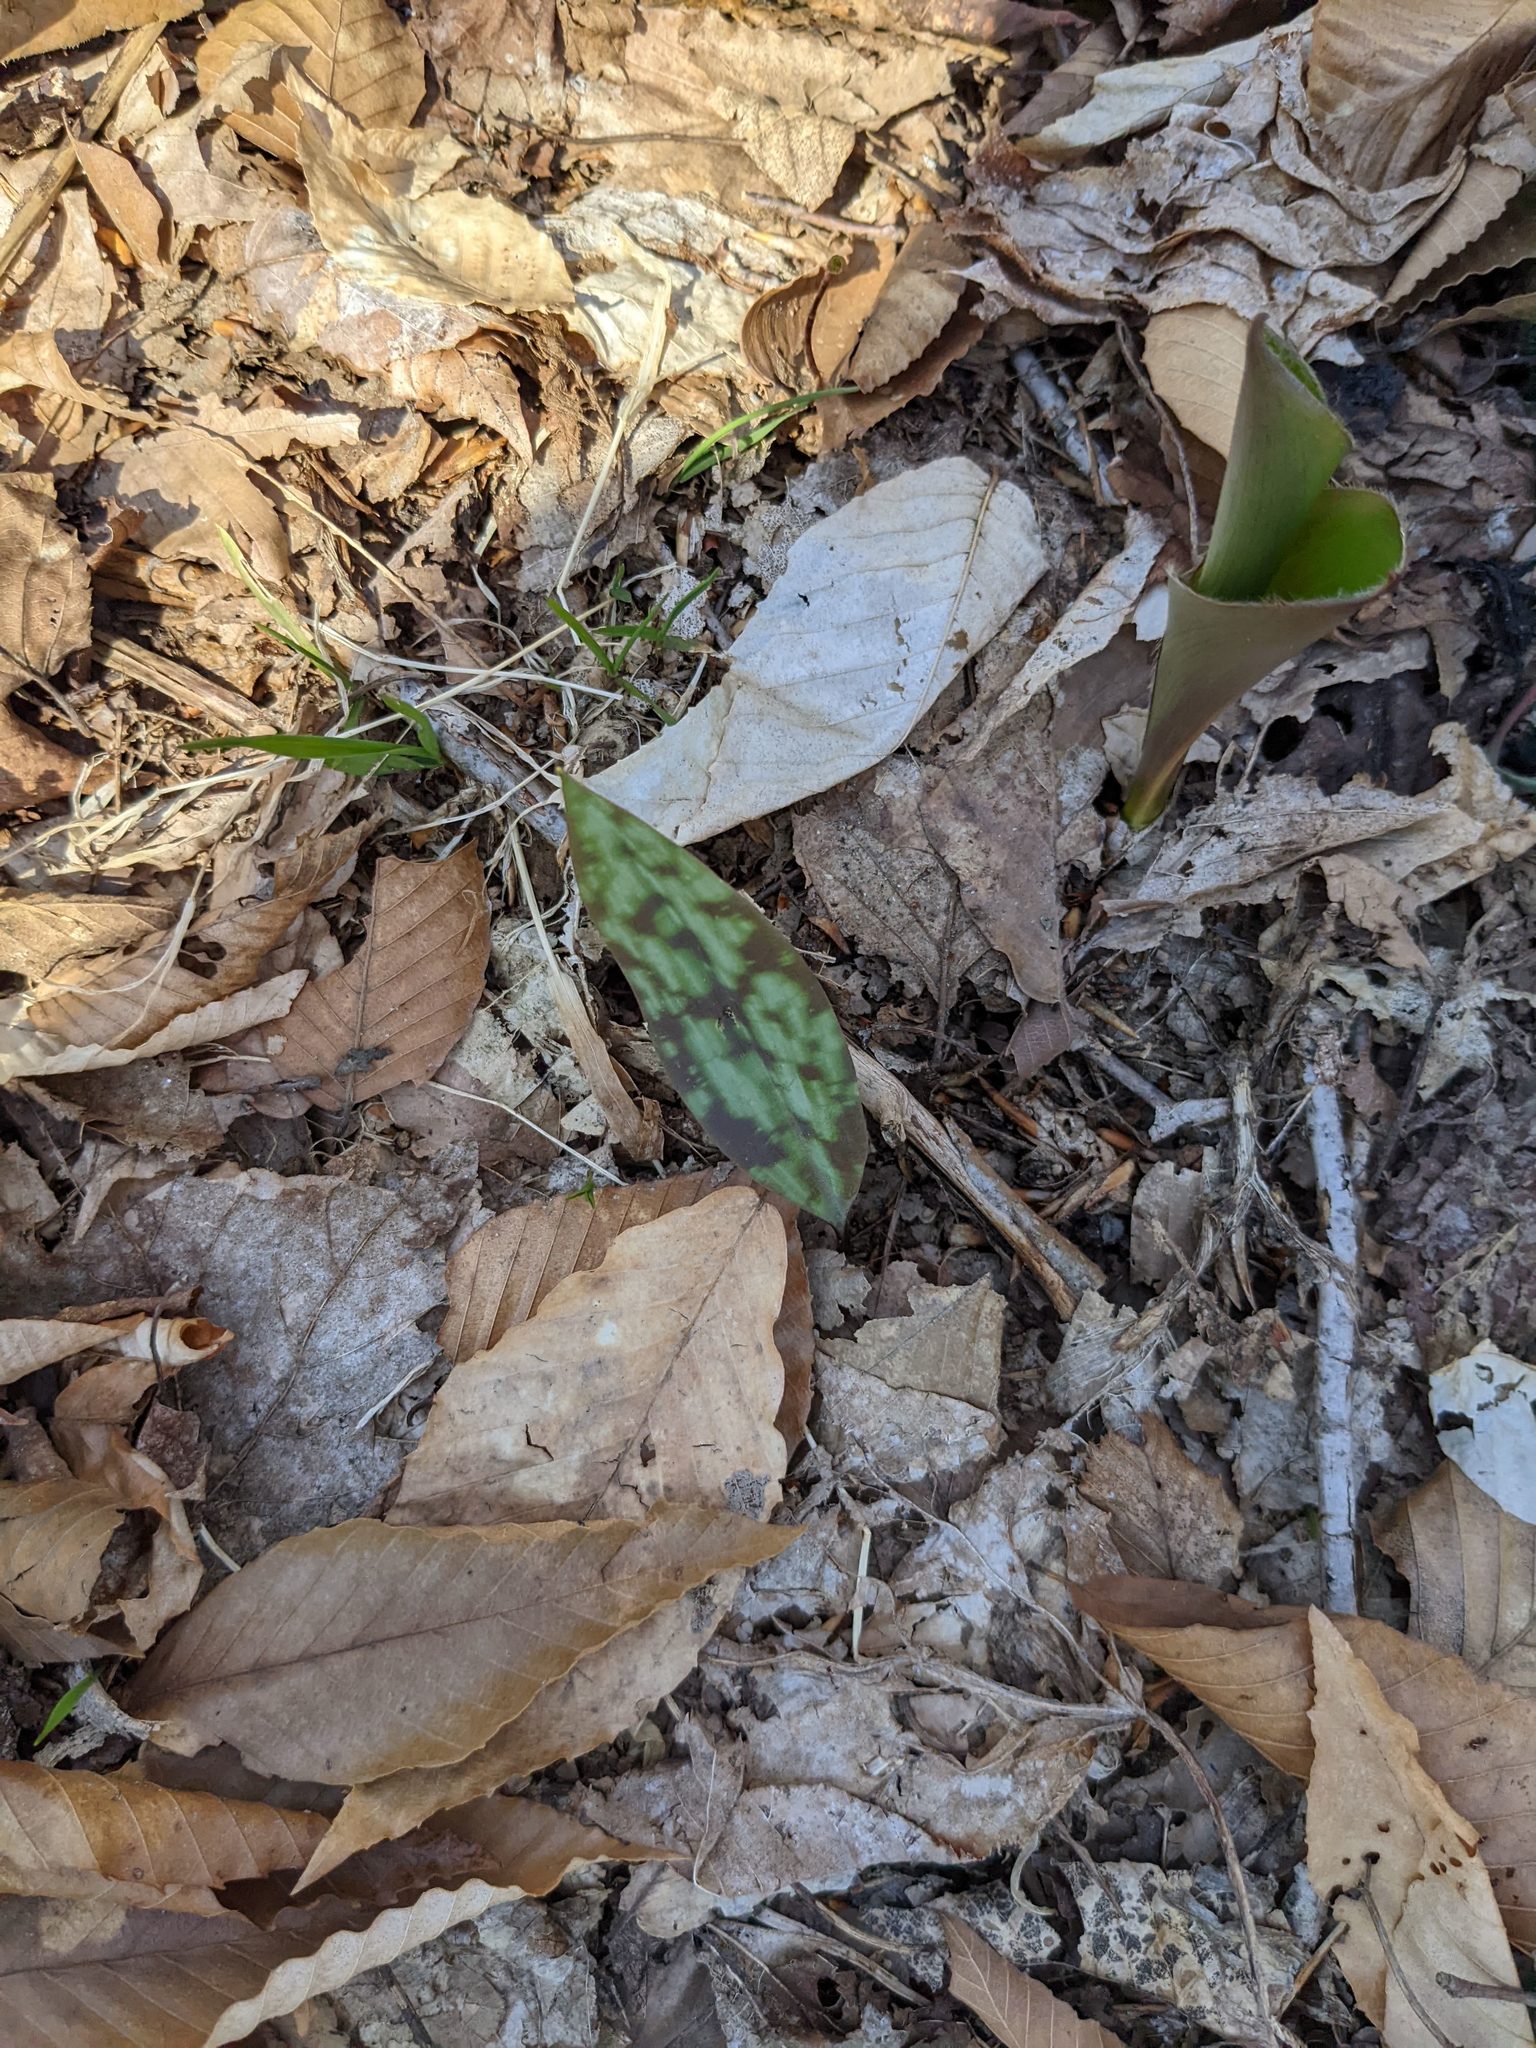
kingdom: Plantae
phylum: Tracheophyta
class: Liliopsida
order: Liliales
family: Liliaceae
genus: Erythronium
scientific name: Erythronium americanum
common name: Yellow adder's-tongue
